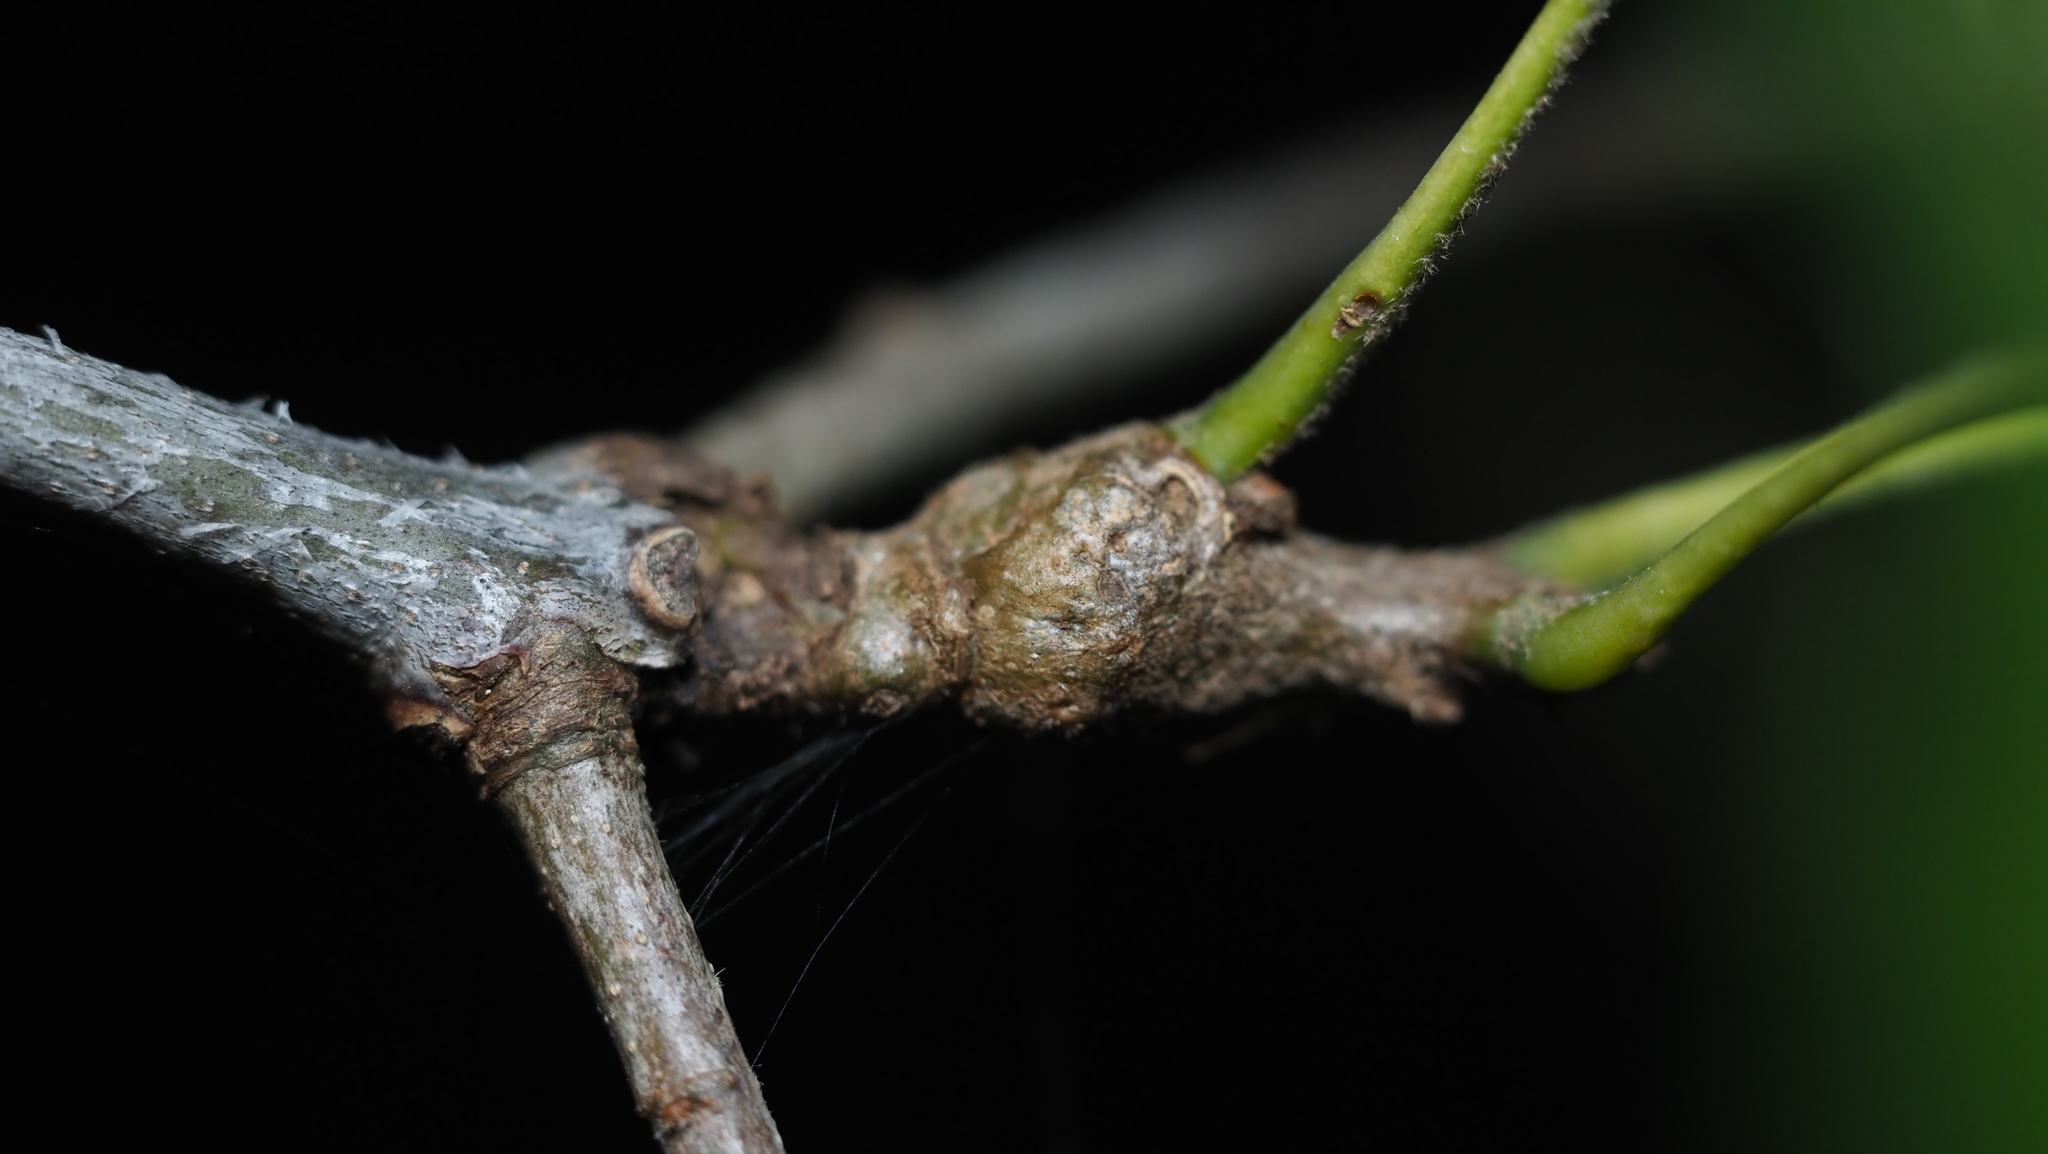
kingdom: Animalia
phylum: Arthropoda
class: Insecta
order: Hymenoptera
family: Cynipidae
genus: Callirhytis
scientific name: Callirhytis
